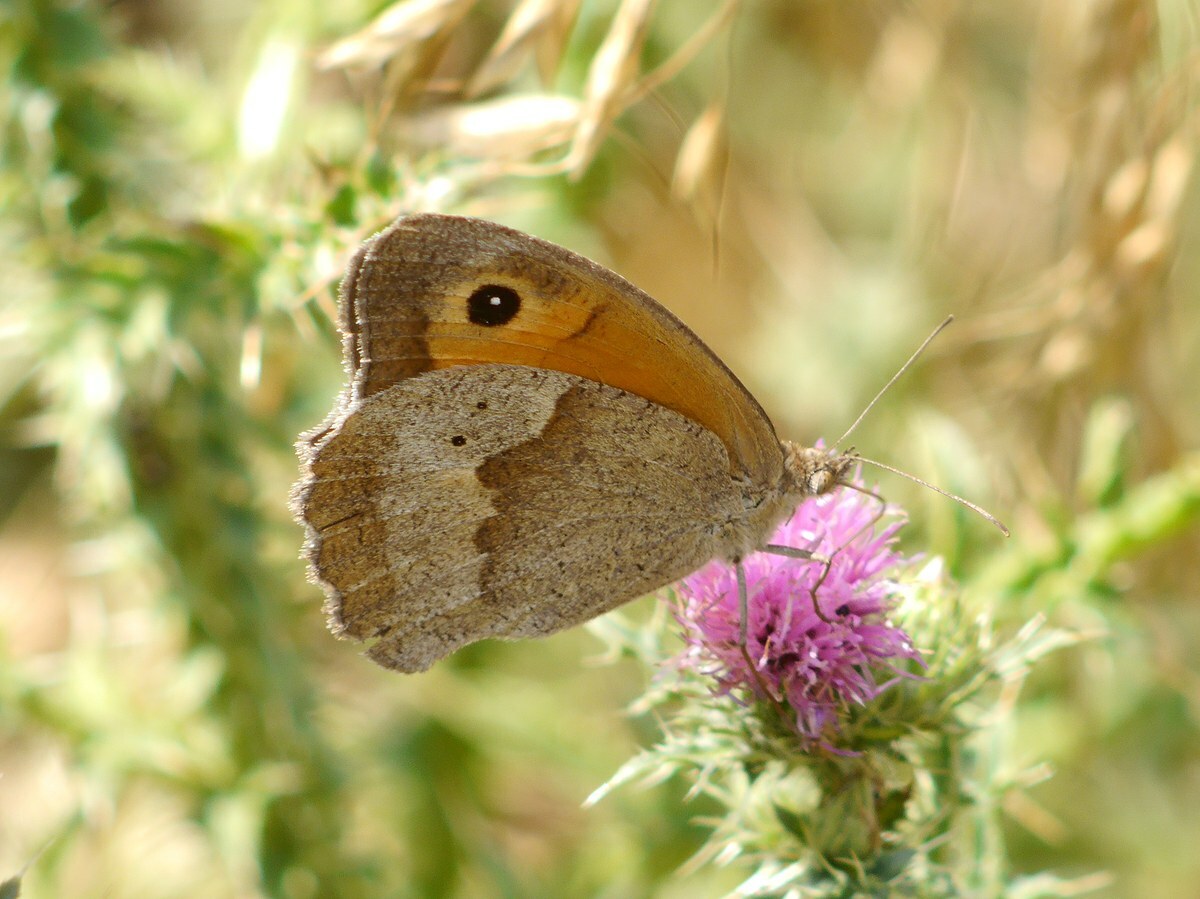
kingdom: Animalia
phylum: Arthropoda
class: Insecta
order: Lepidoptera
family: Nymphalidae
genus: Maniola
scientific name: Maniola jurtina
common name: Meadow brown
